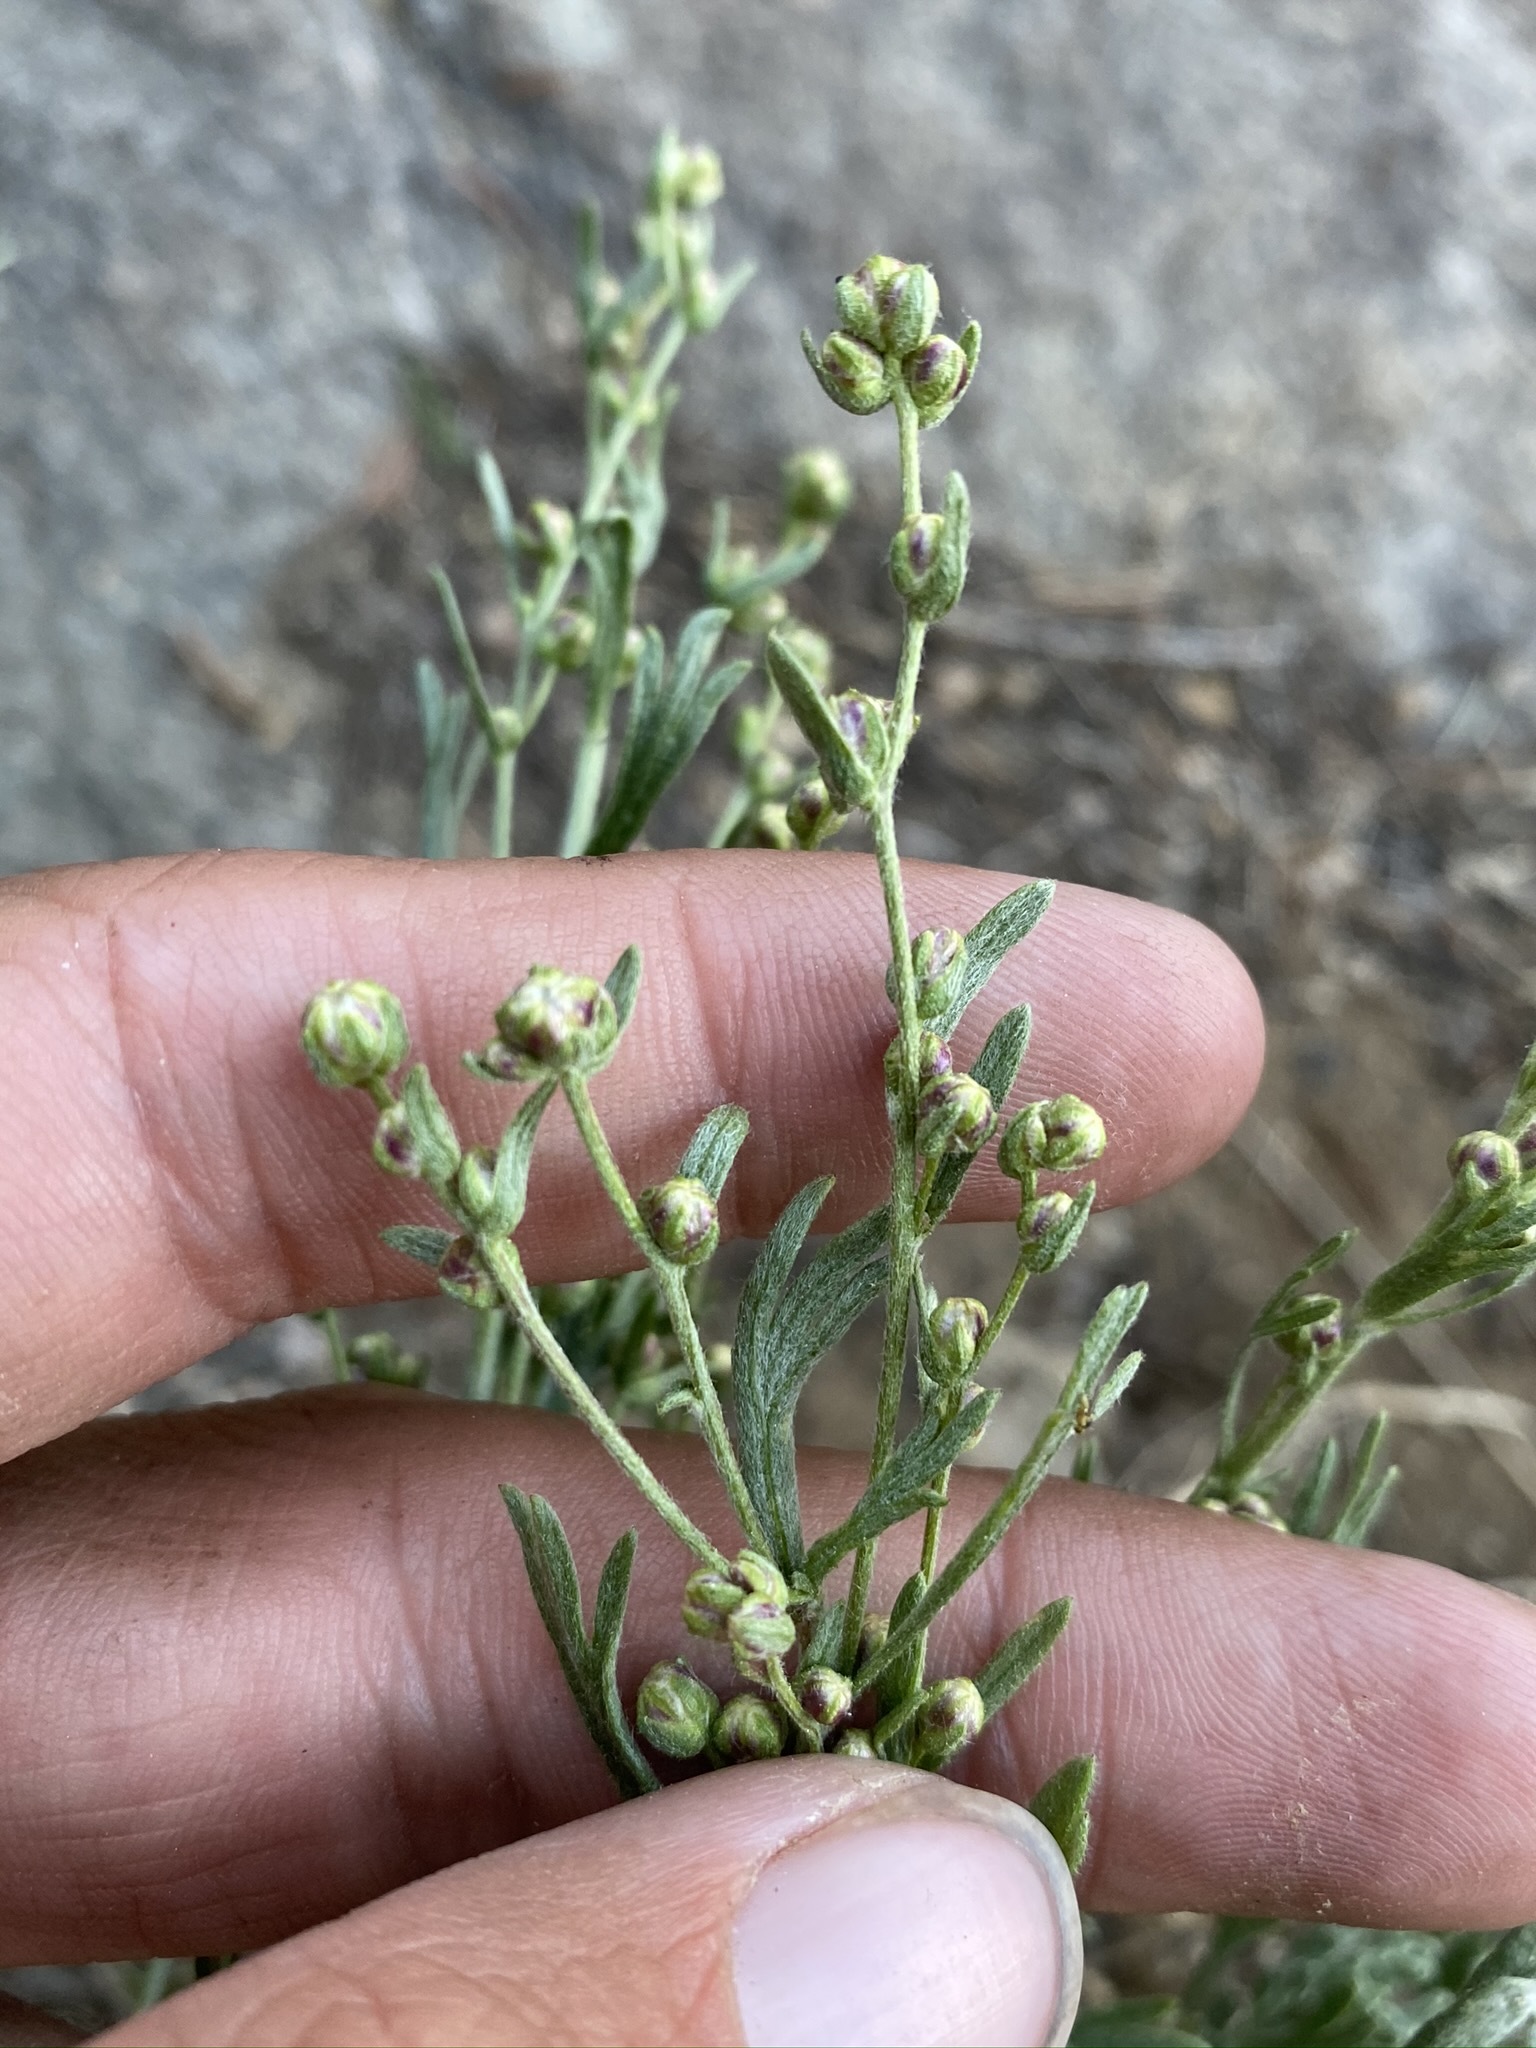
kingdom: Plantae
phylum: Tracheophyta
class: Magnoliopsida
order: Asterales
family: Asteraceae
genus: Artemisia
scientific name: Artemisia rothrockii
